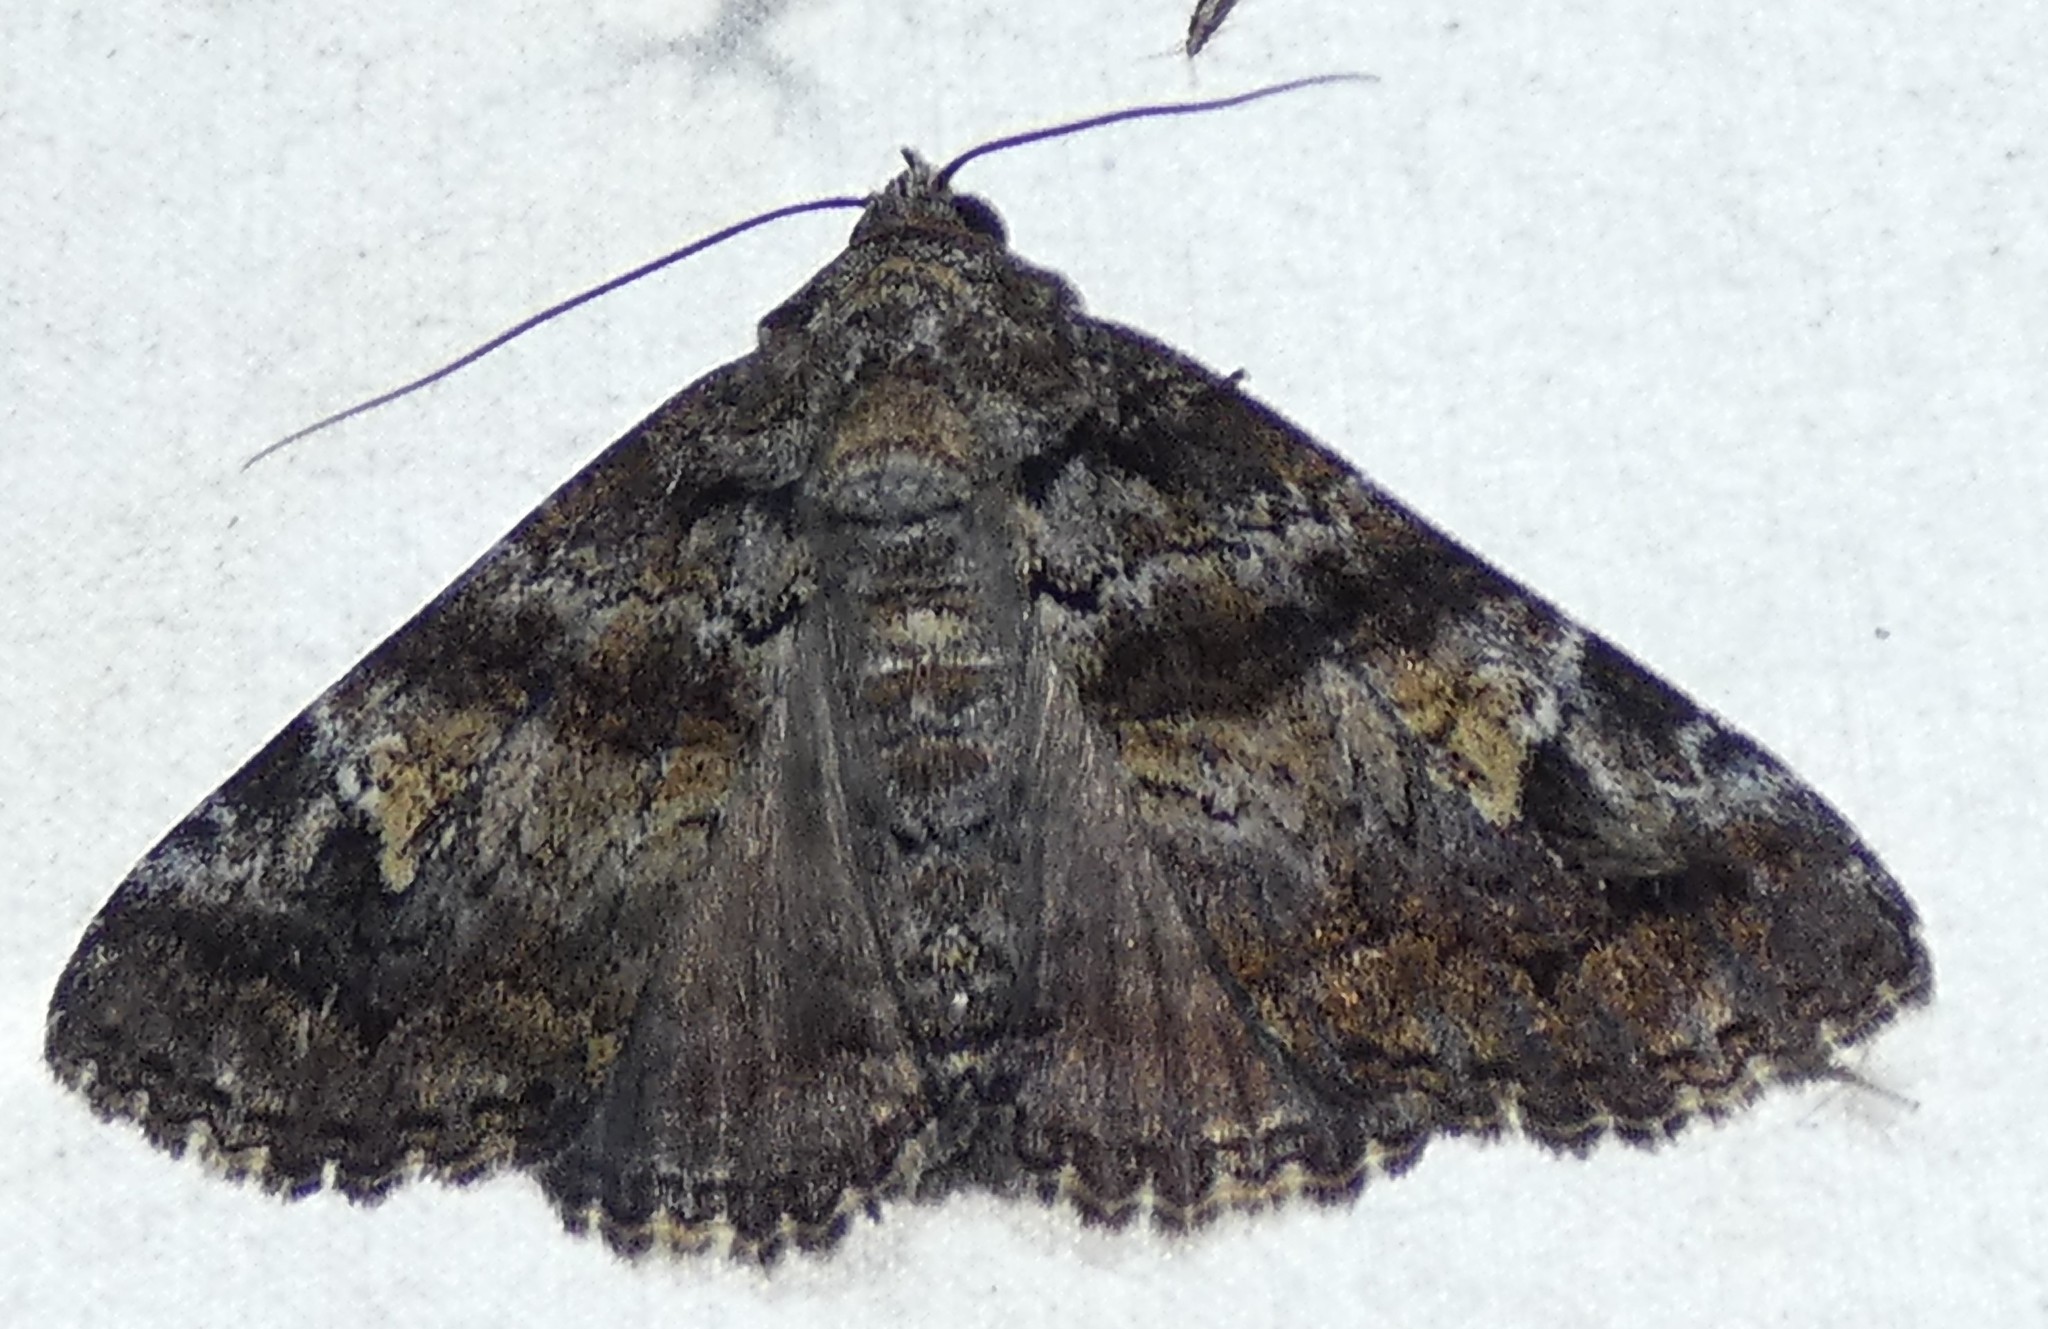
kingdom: Animalia
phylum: Arthropoda
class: Insecta
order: Lepidoptera
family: Erebidae
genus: Metria
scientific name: Metria amella
